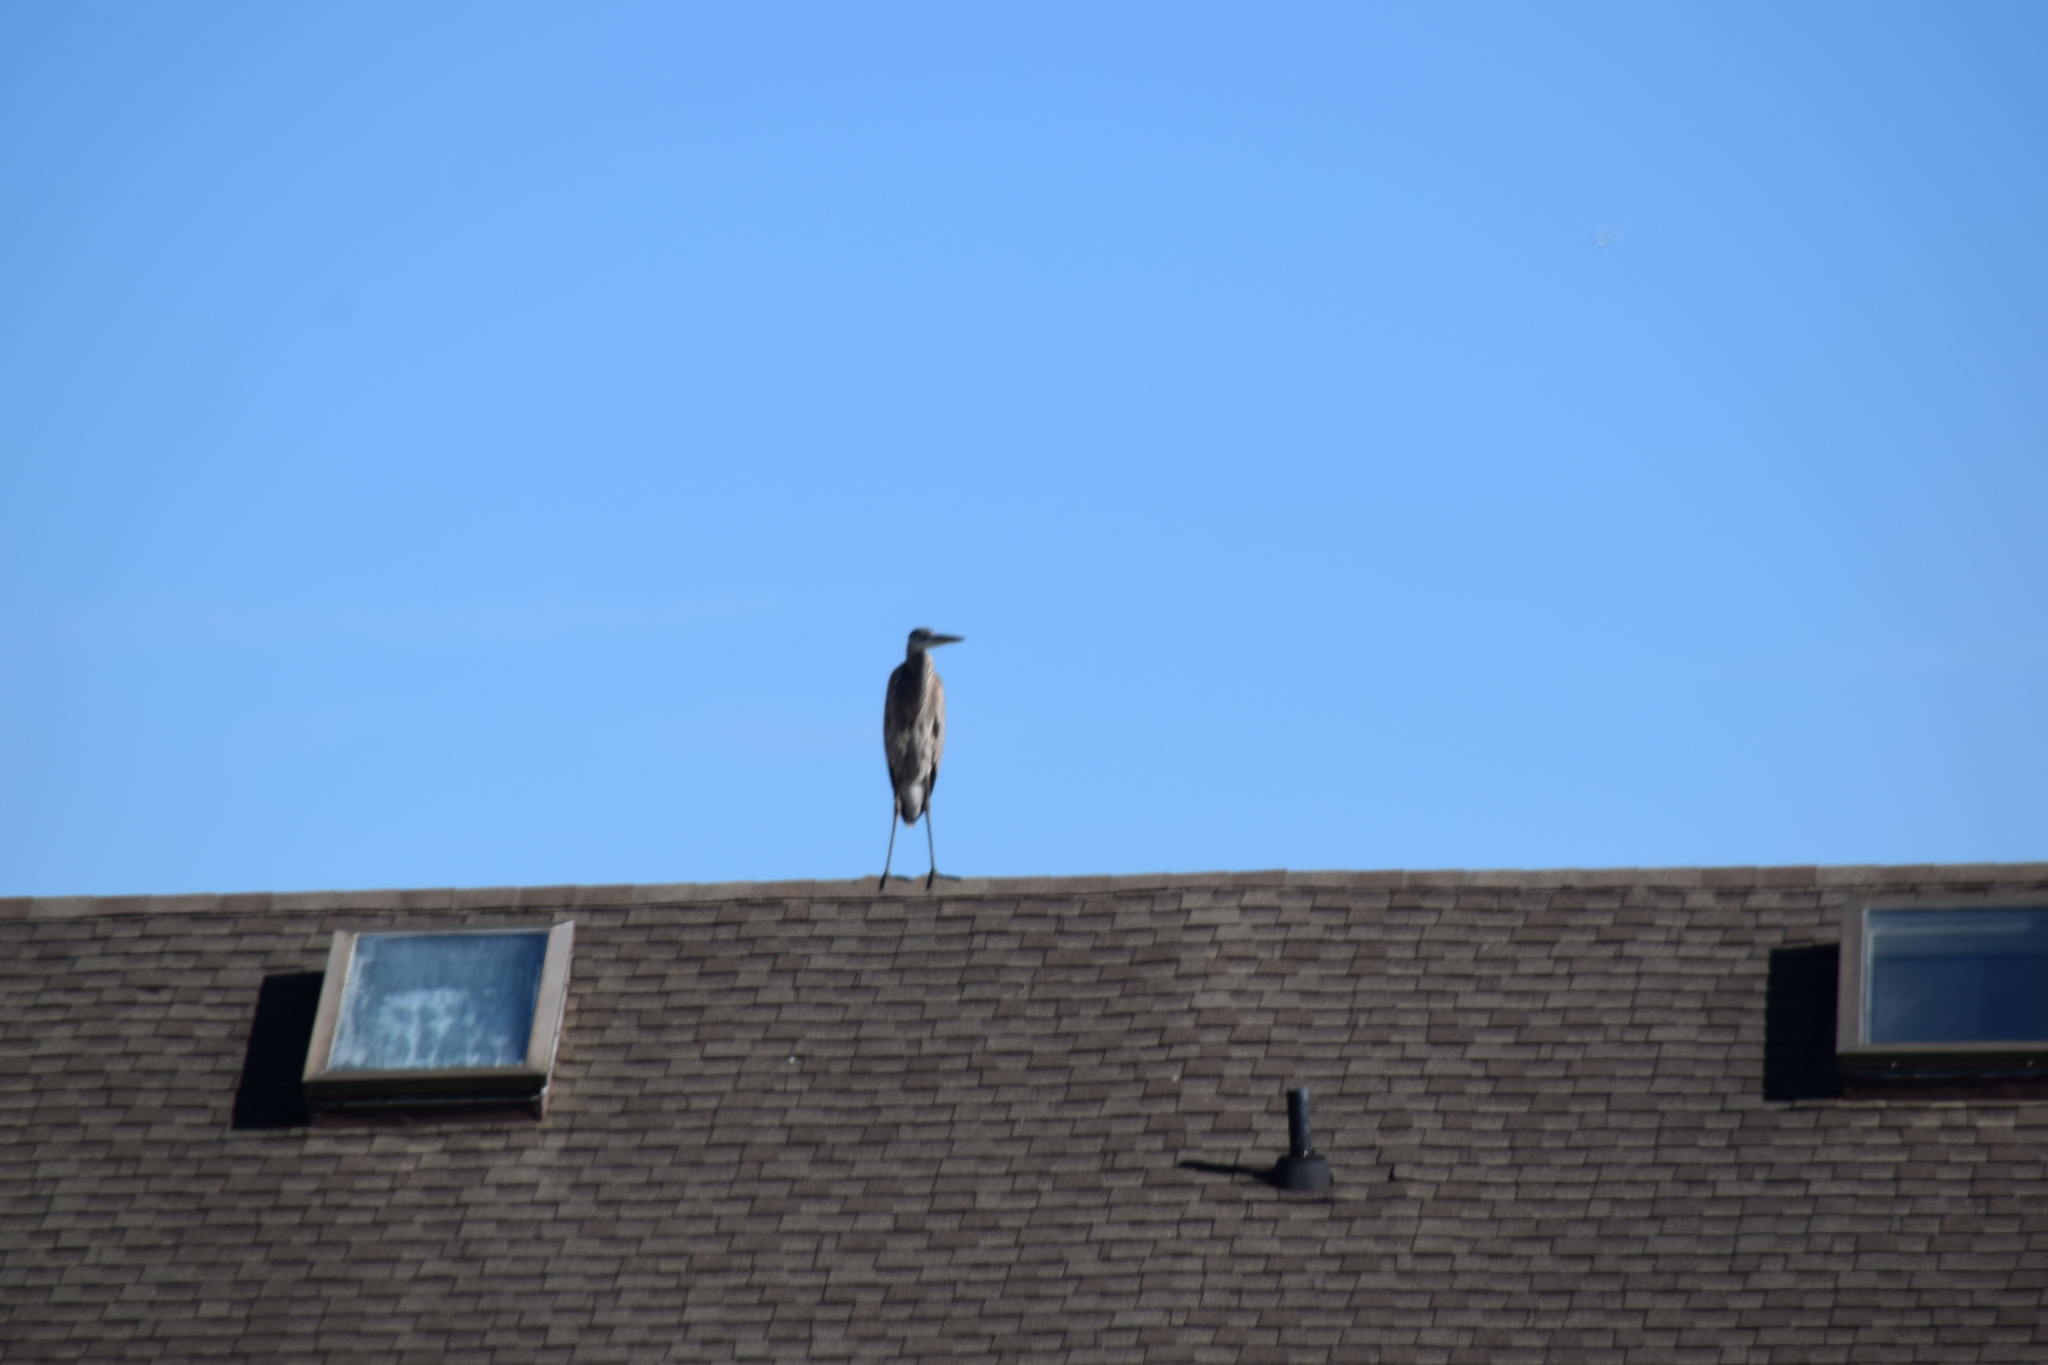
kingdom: Animalia
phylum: Chordata
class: Aves
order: Pelecaniformes
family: Ardeidae
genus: Ardea
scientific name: Ardea herodias
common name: Great blue heron
